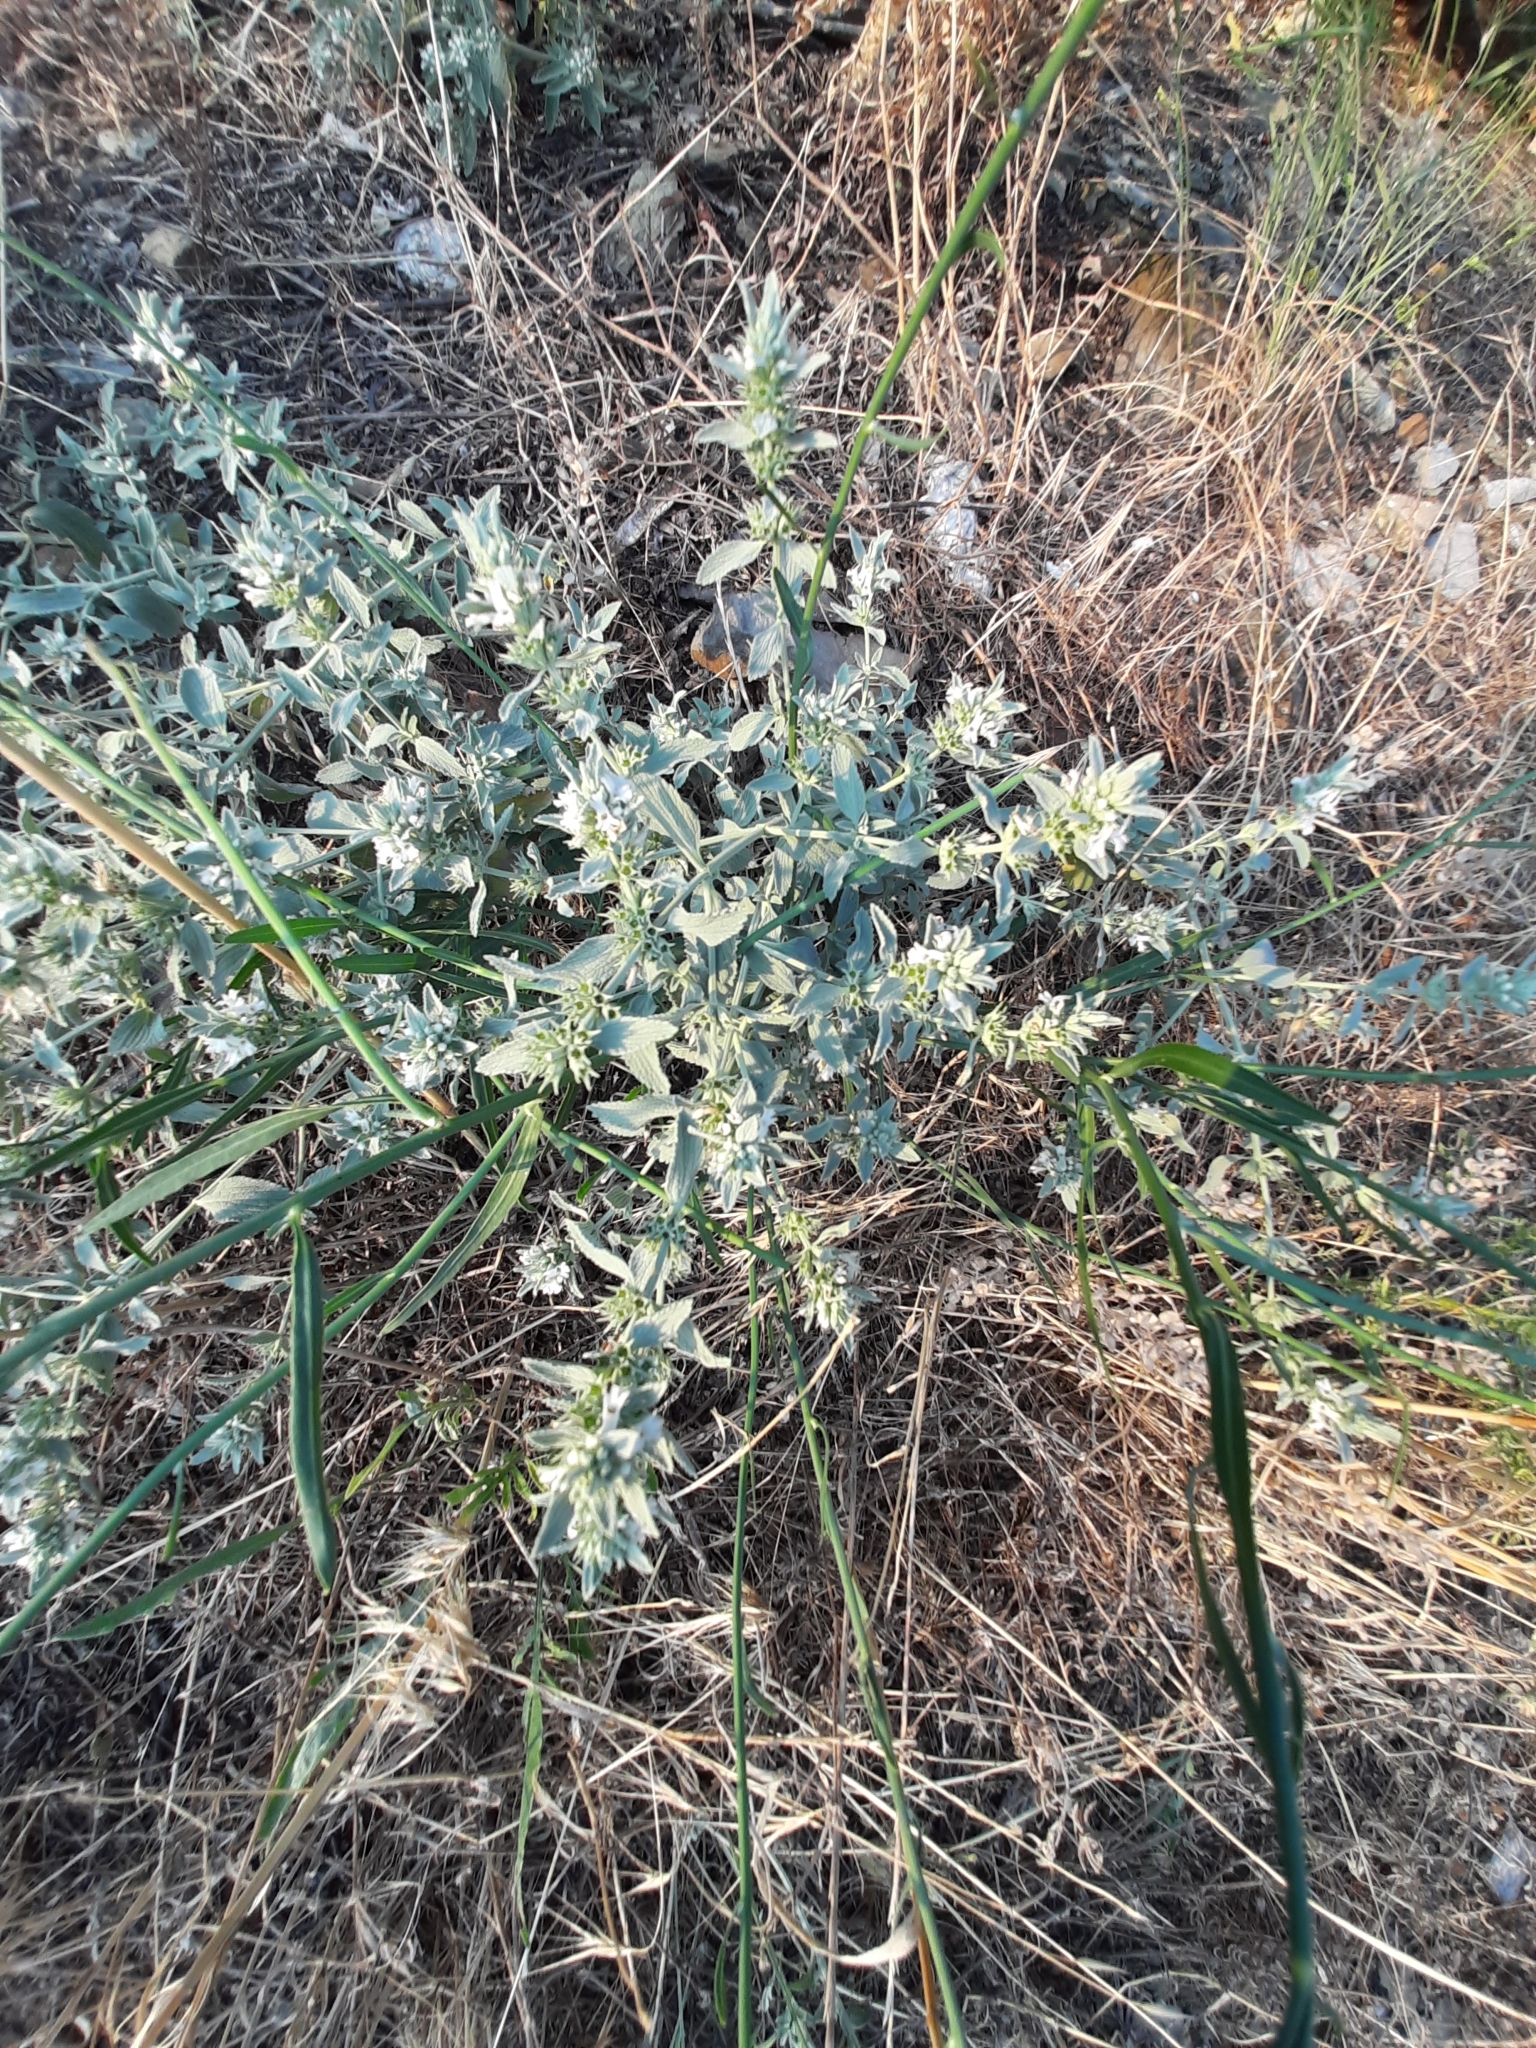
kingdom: Plantae
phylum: Tracheophyta
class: Magnoliopsida
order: Lamiales
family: Lamiaceae
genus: Marrubium
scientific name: Marrubium peregrinum
